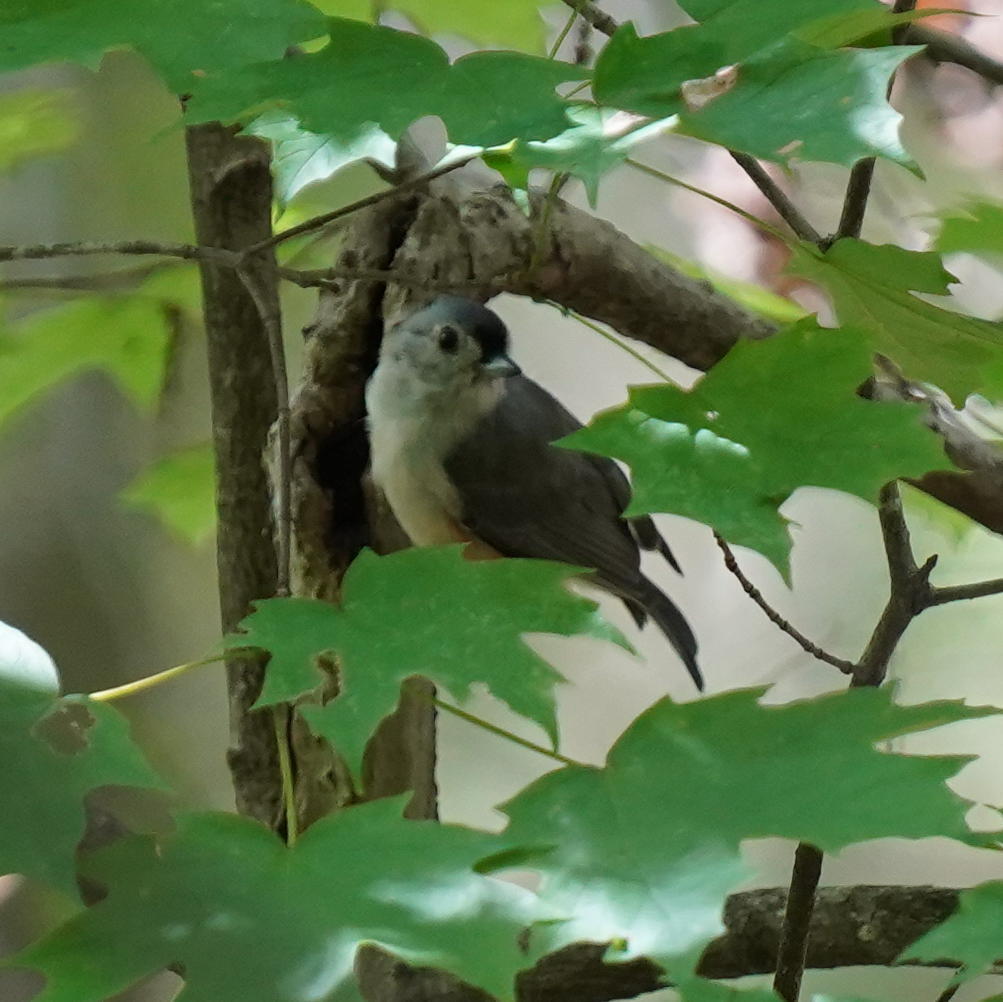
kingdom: Animalia
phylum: Chordata
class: Aves
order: Passeriformes
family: Paridae
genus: Baeolophus
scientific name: Baeolophus bicolor
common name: Tufted titmouse
